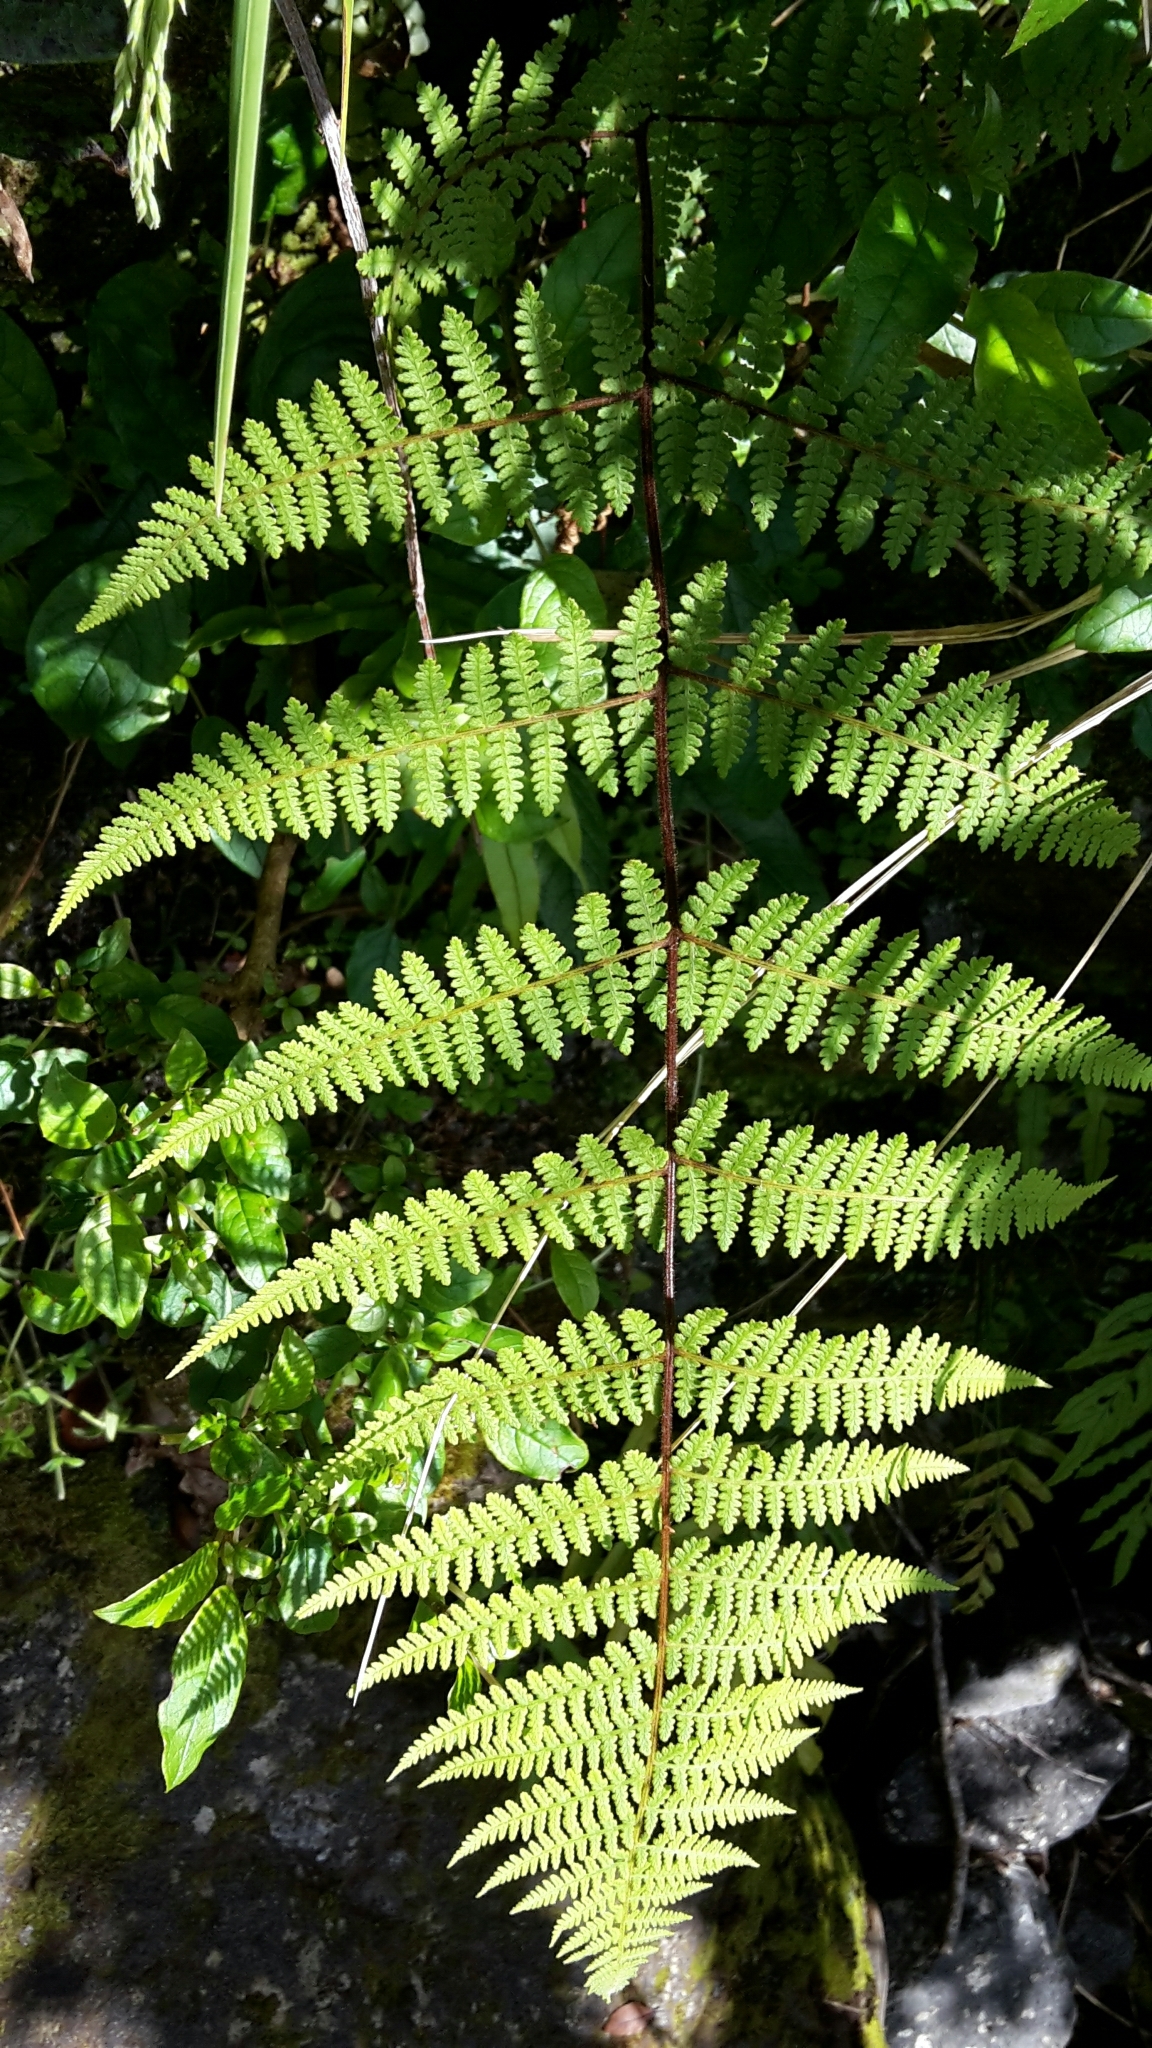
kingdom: Plantae
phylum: Tracheophyta
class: Polypodiopsida
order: Polypodiales
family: Dennstaedtiaceae
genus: Hypolepis
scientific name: Hypolepis rugosula
